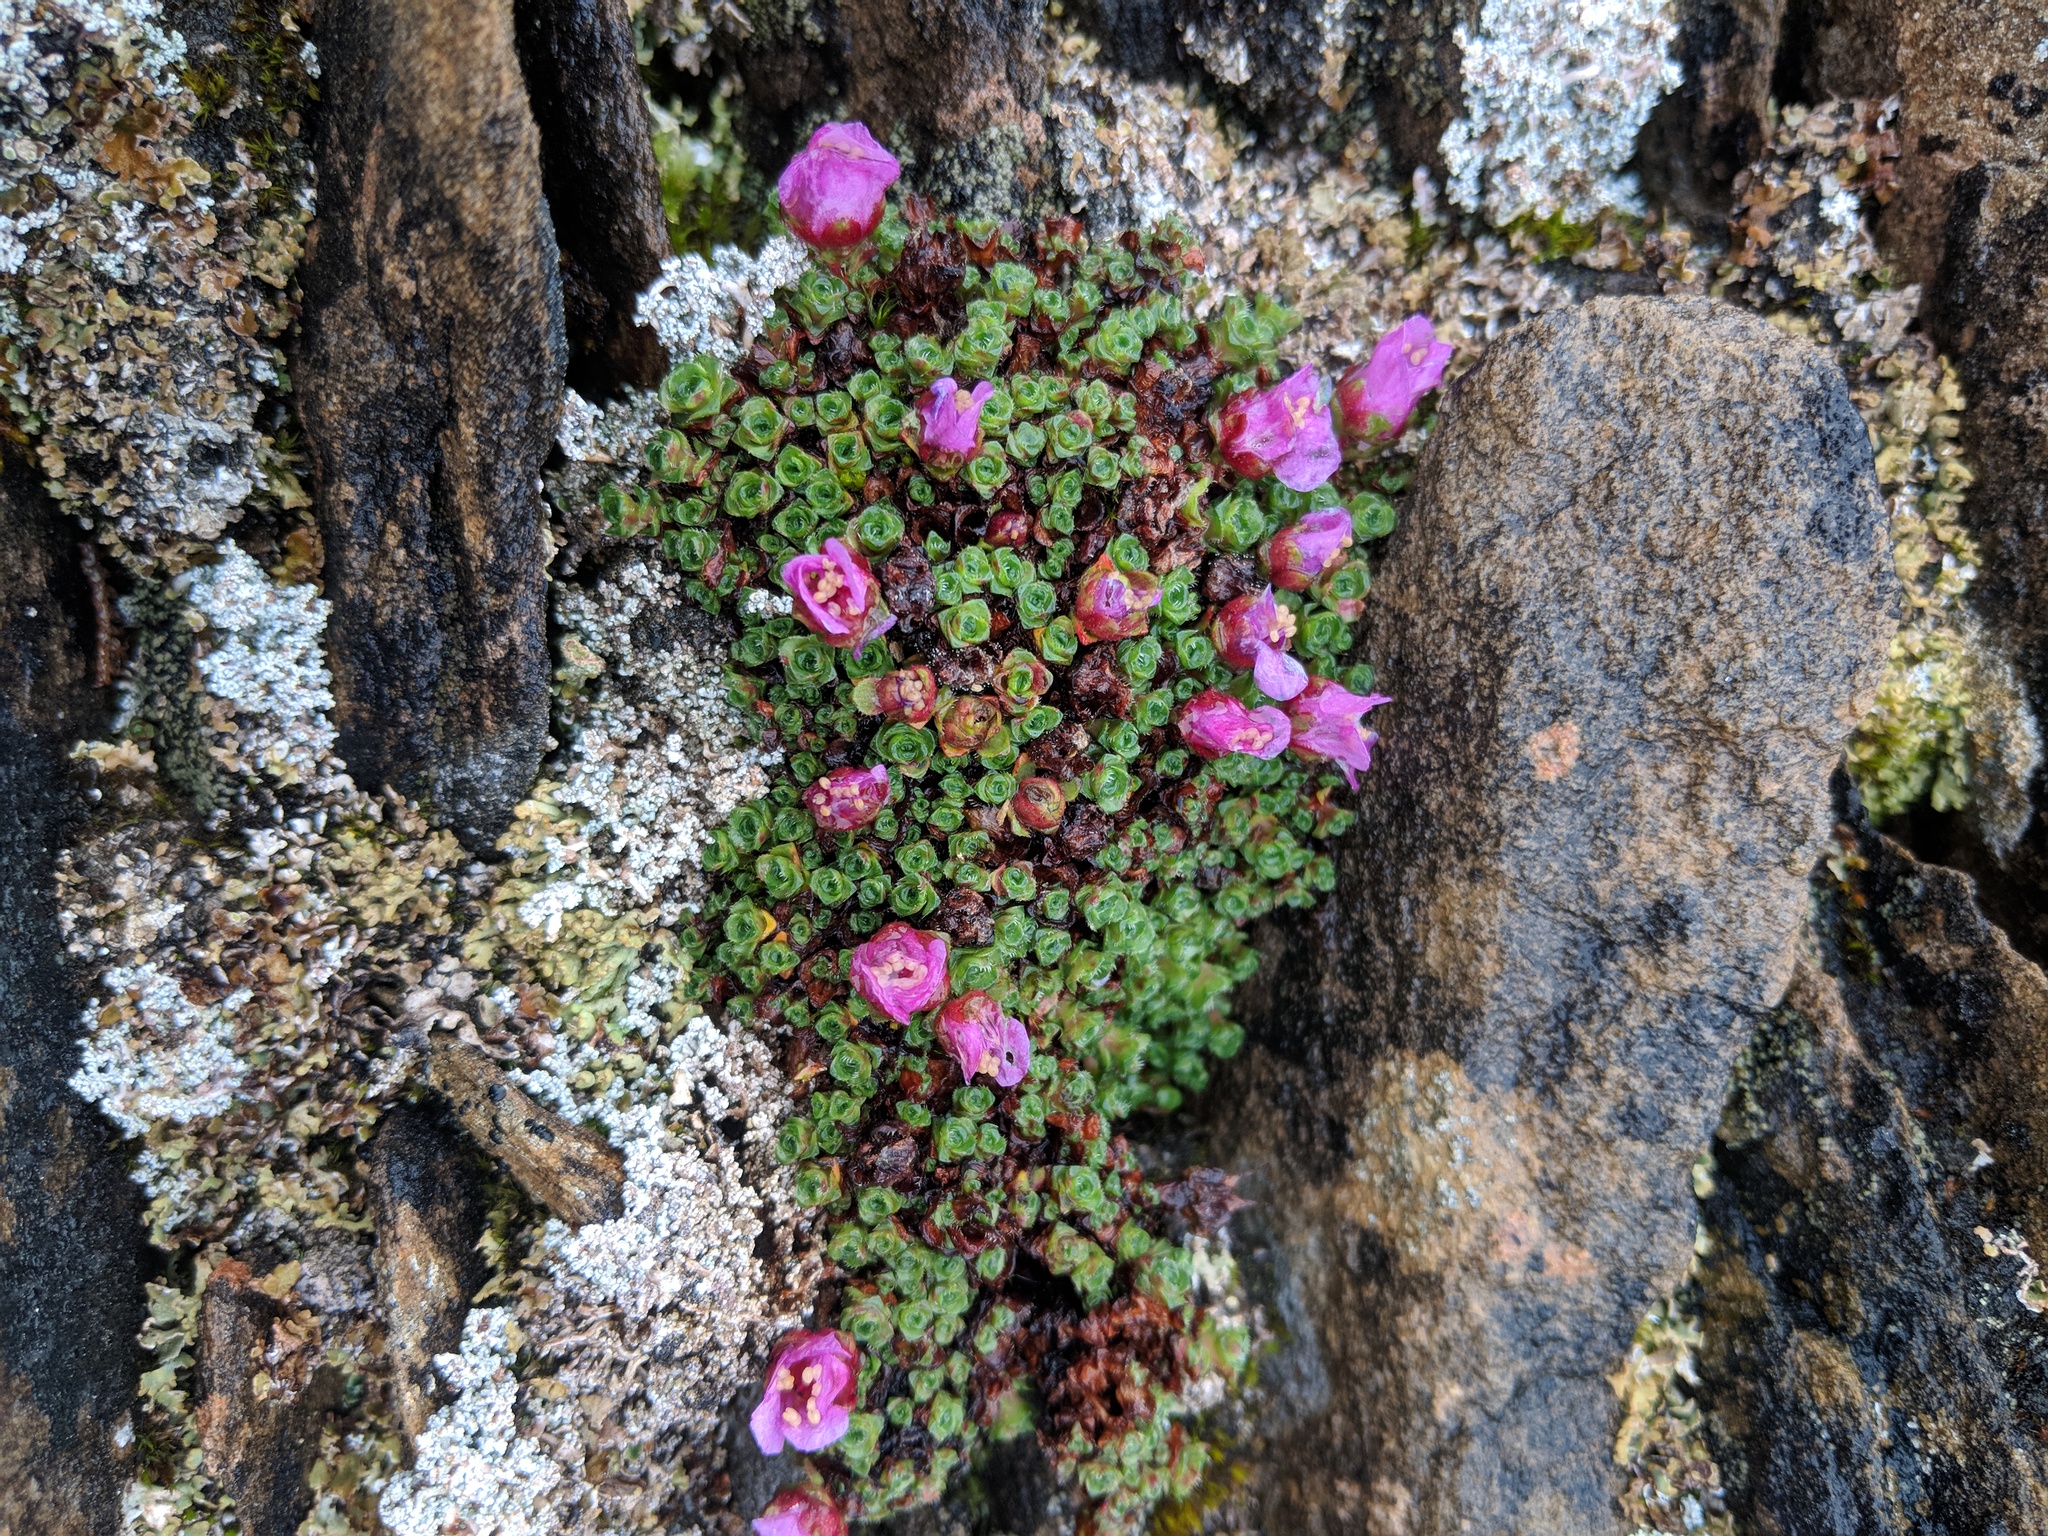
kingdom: Plantae
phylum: Tracheophyta
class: Magnoliopsida
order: Saxifragales
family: Saxifragaceae
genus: Saxifraga
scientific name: Saxifraga oppositifolia
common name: Purple saxifrage
